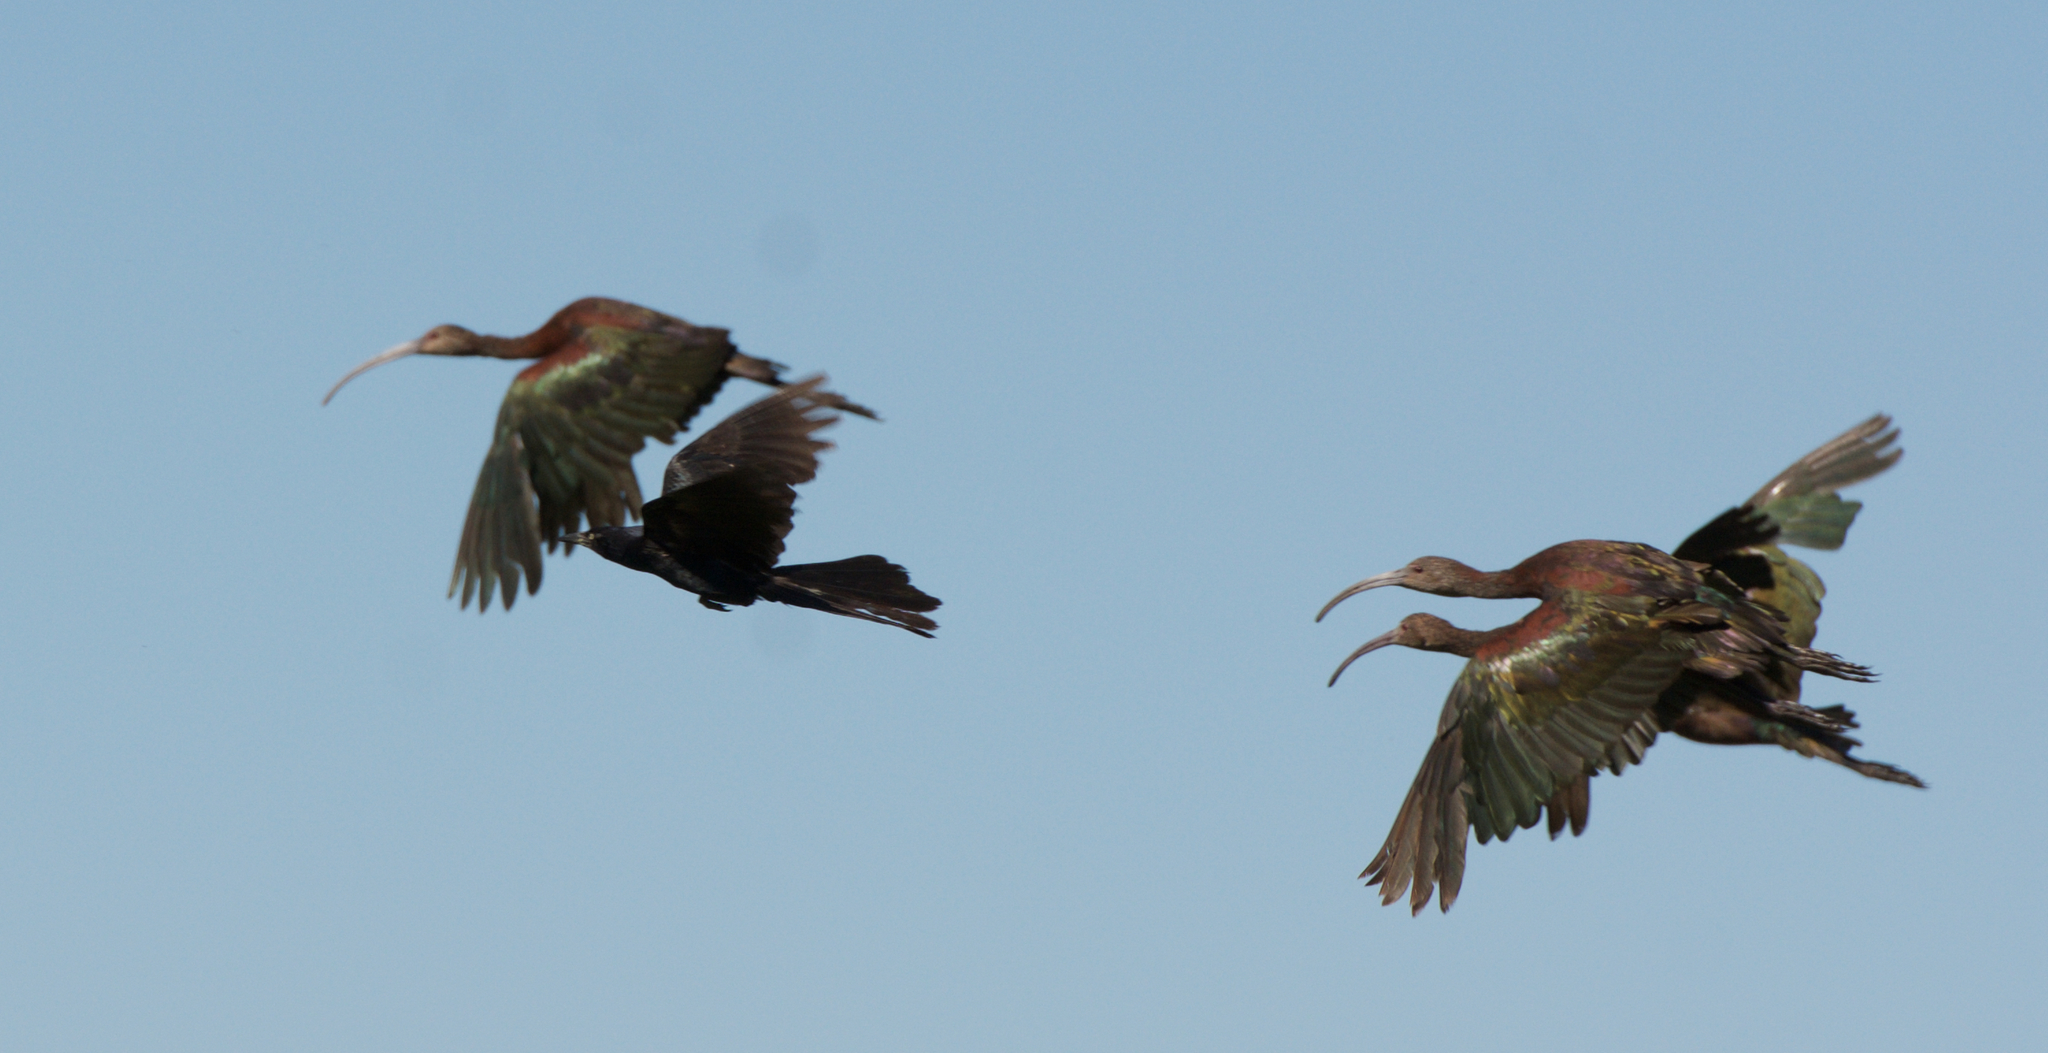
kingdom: Animalia
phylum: Chordata
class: Aves
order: Pelecaniformes
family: Threskiornithidae
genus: Plegadis
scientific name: Plegadis chihi
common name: White-faced ibis
